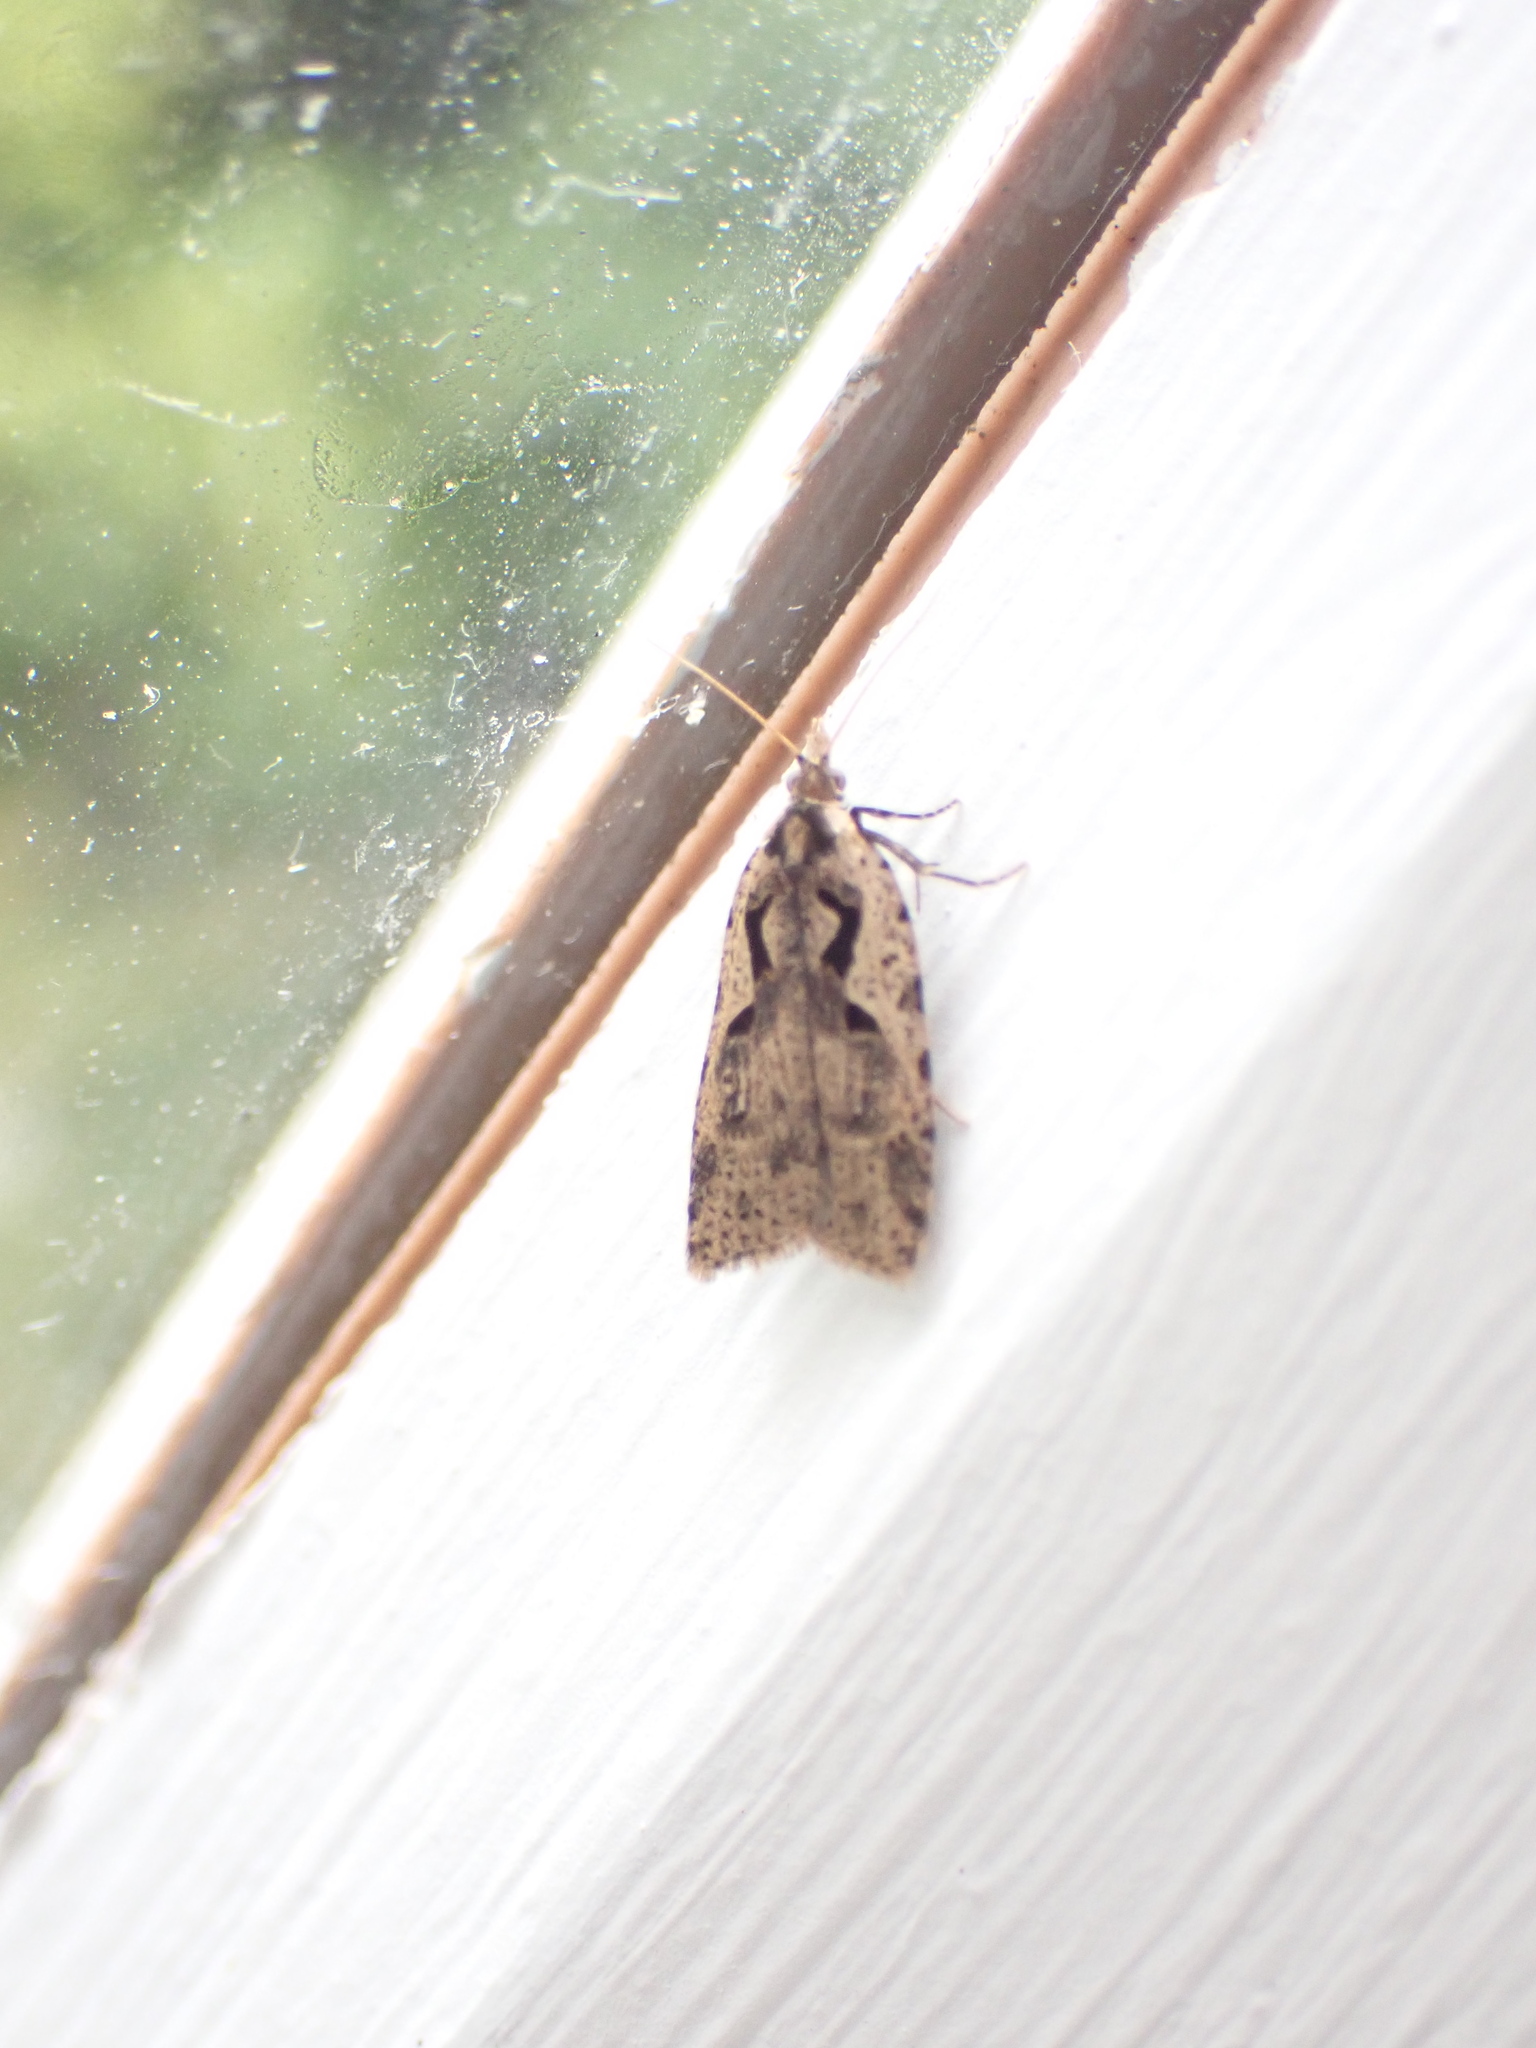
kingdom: Animalia
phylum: Arthropoda
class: Insecta
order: Lepidoptera
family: Tortricidae
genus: Cnephasia
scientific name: Cnephasia jactatana
